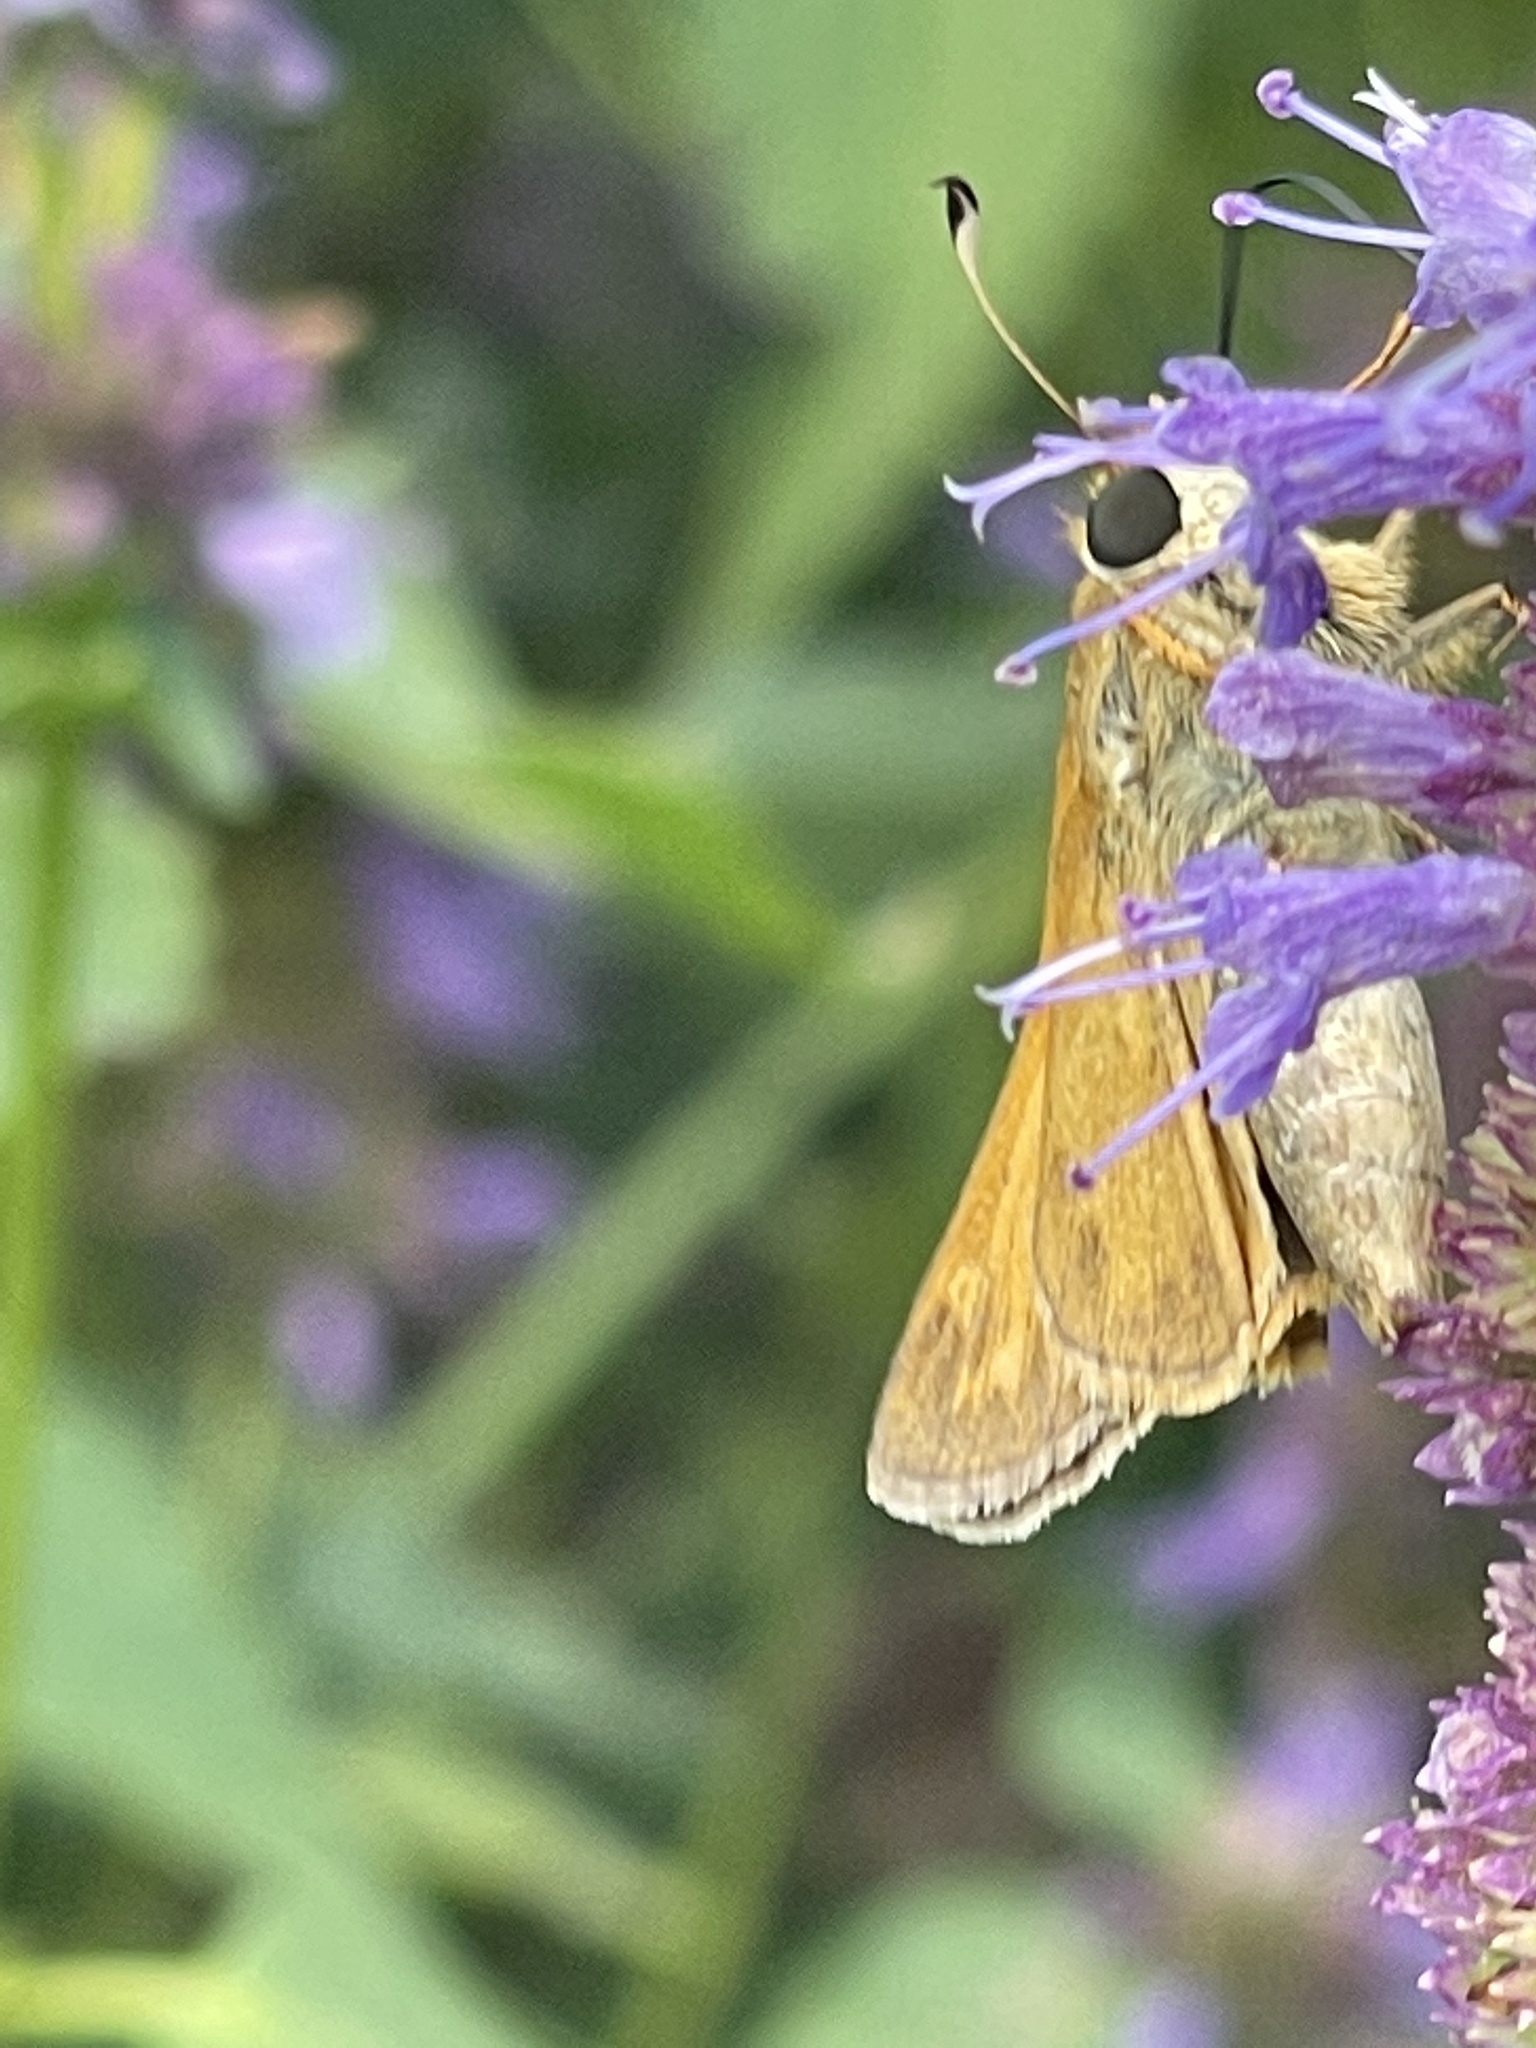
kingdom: Animalia
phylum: Arthropoda
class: Insecta
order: Lepidoptera
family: Hesperiidae
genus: Atalopedes
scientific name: Atalopedes
